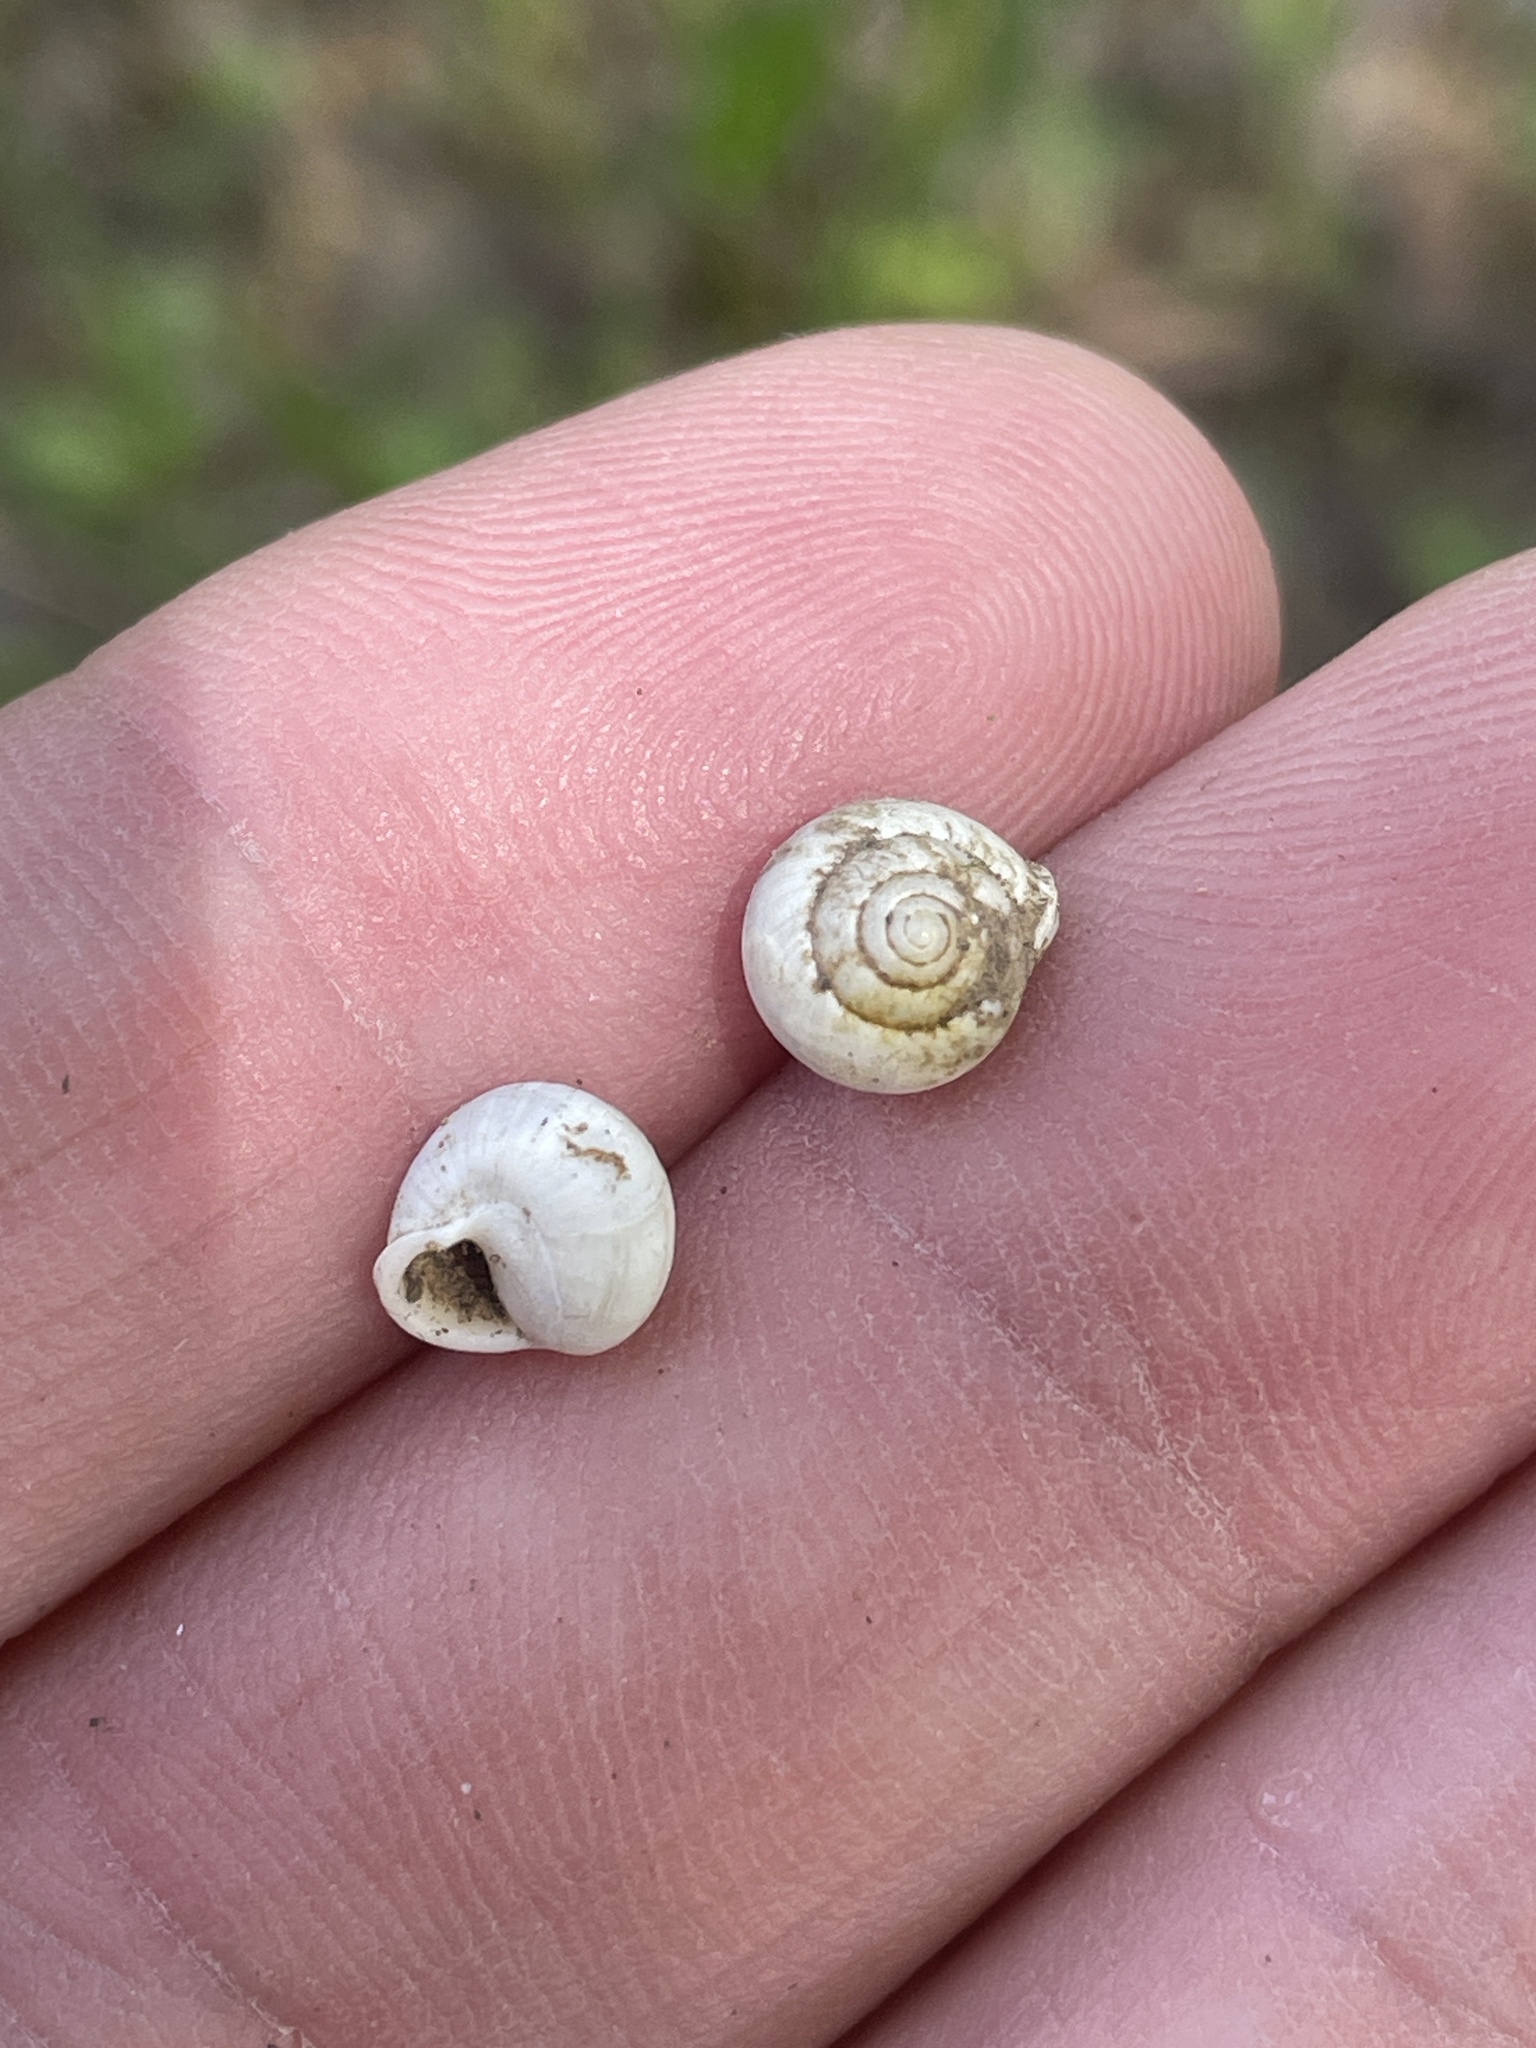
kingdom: Animalia
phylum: Mollusca
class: Gastropoda
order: Cycloneritida
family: Helicinidae
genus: Helicina
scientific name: Helicina orbiculata
